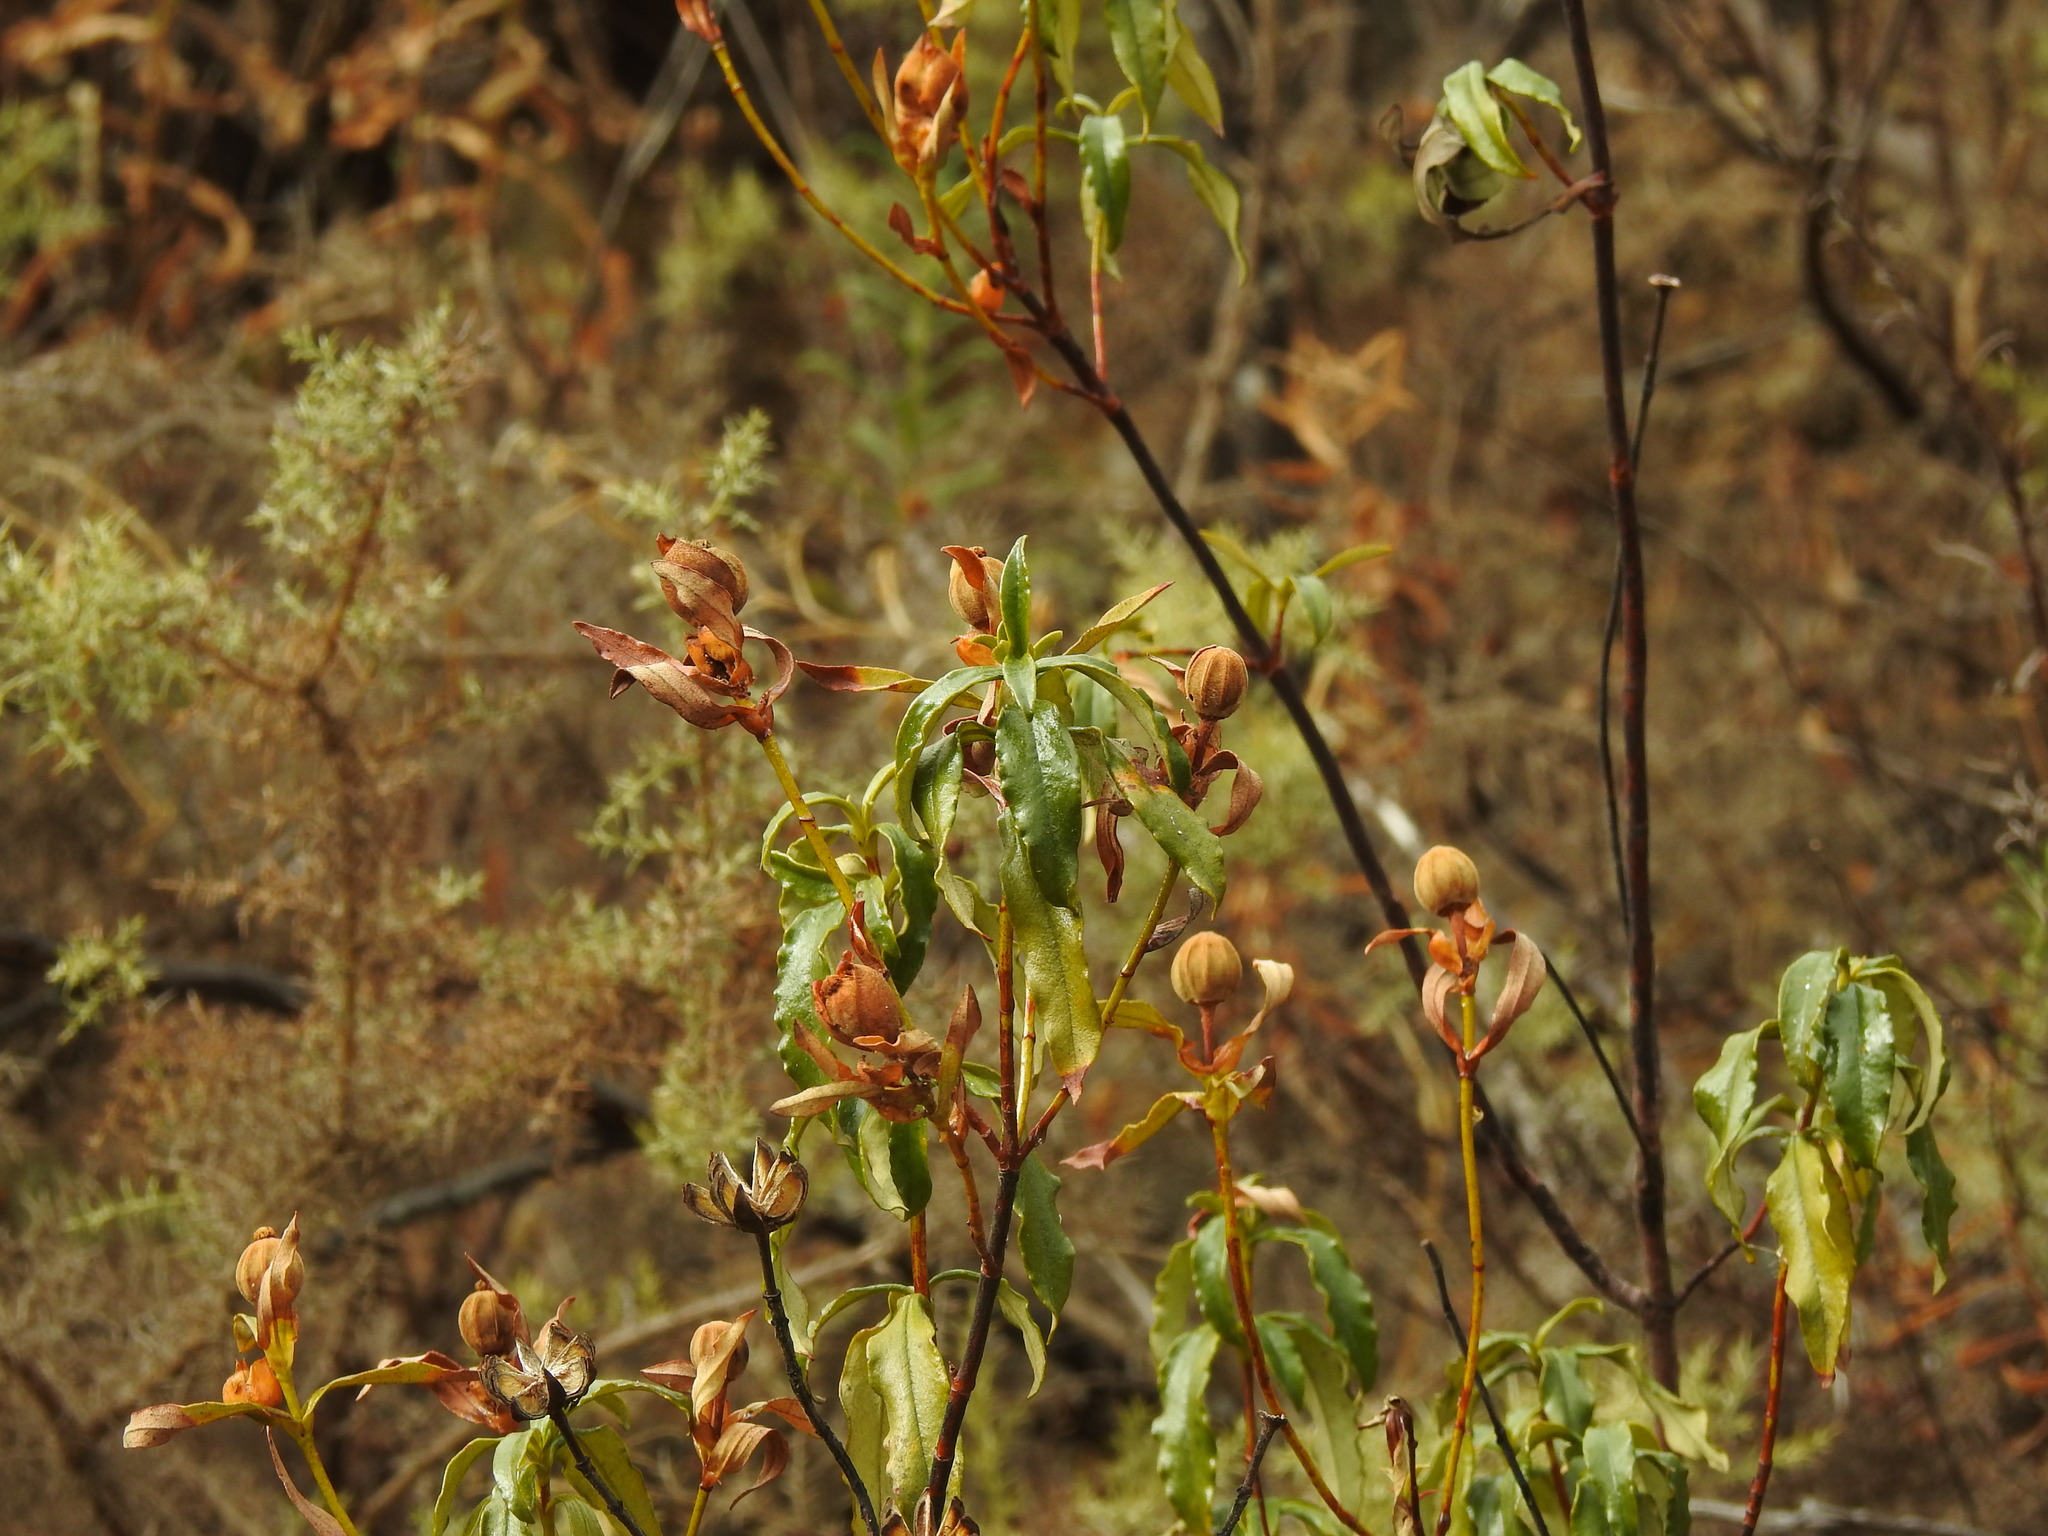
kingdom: Plantae
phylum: Tracheophyta
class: Magnoliopsida
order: Malvales
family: Cistaceae
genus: Cistus
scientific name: Cistus ladanifer
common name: Common gum cistus
